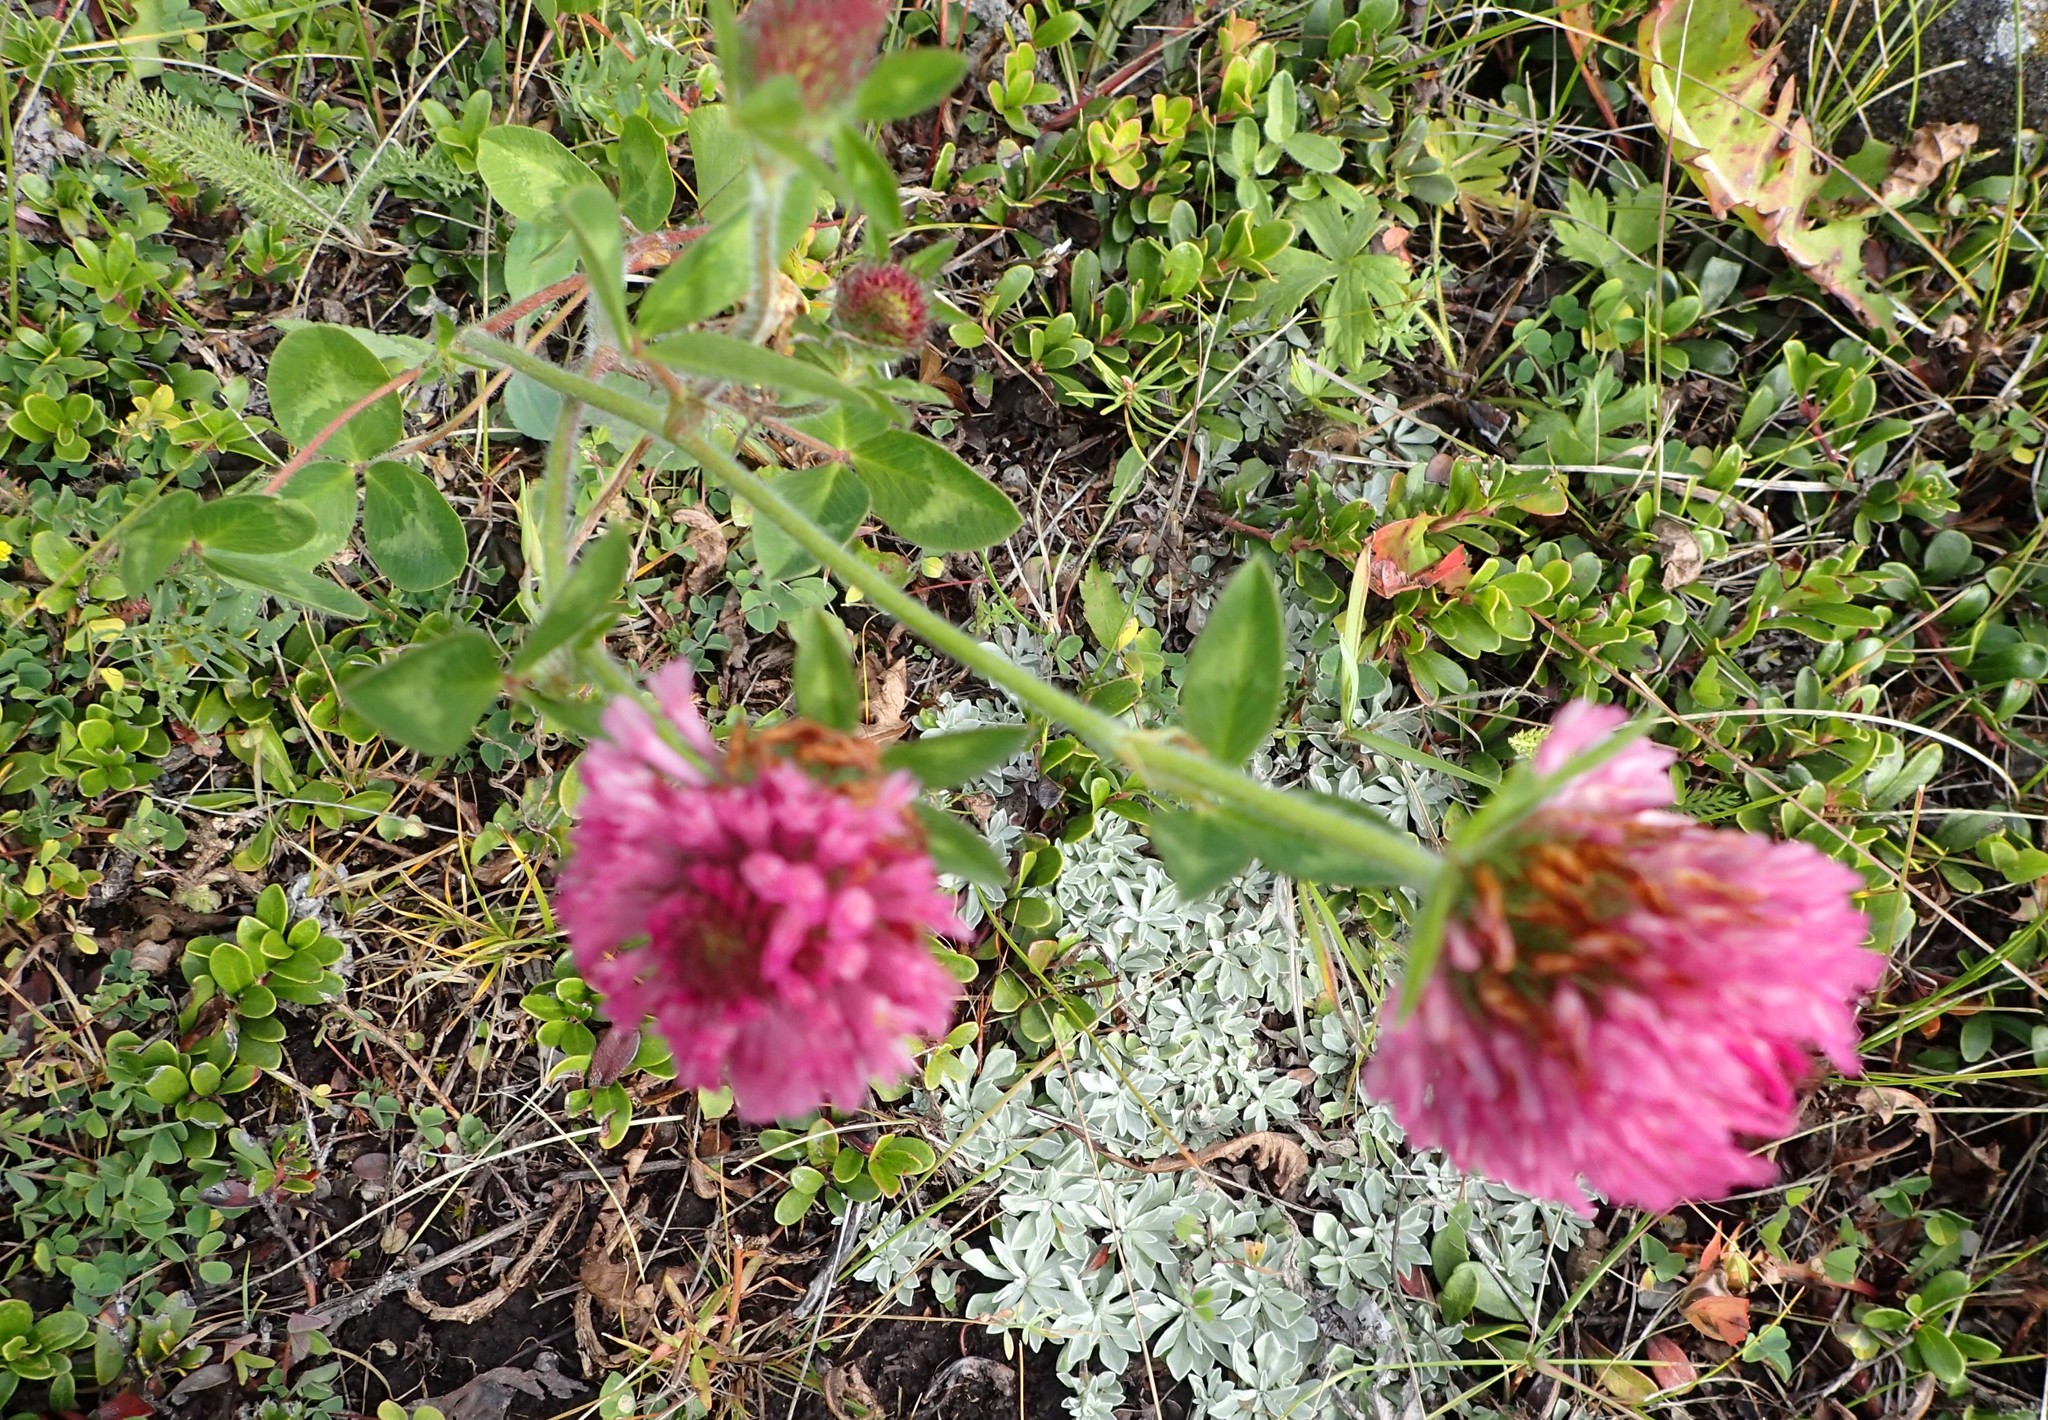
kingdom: Plantae
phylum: Tracheophyta
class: Magnoliopsida
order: Fabales
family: Fabaceae
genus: Trifolium
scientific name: Trifolium pratense
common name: Red clover
